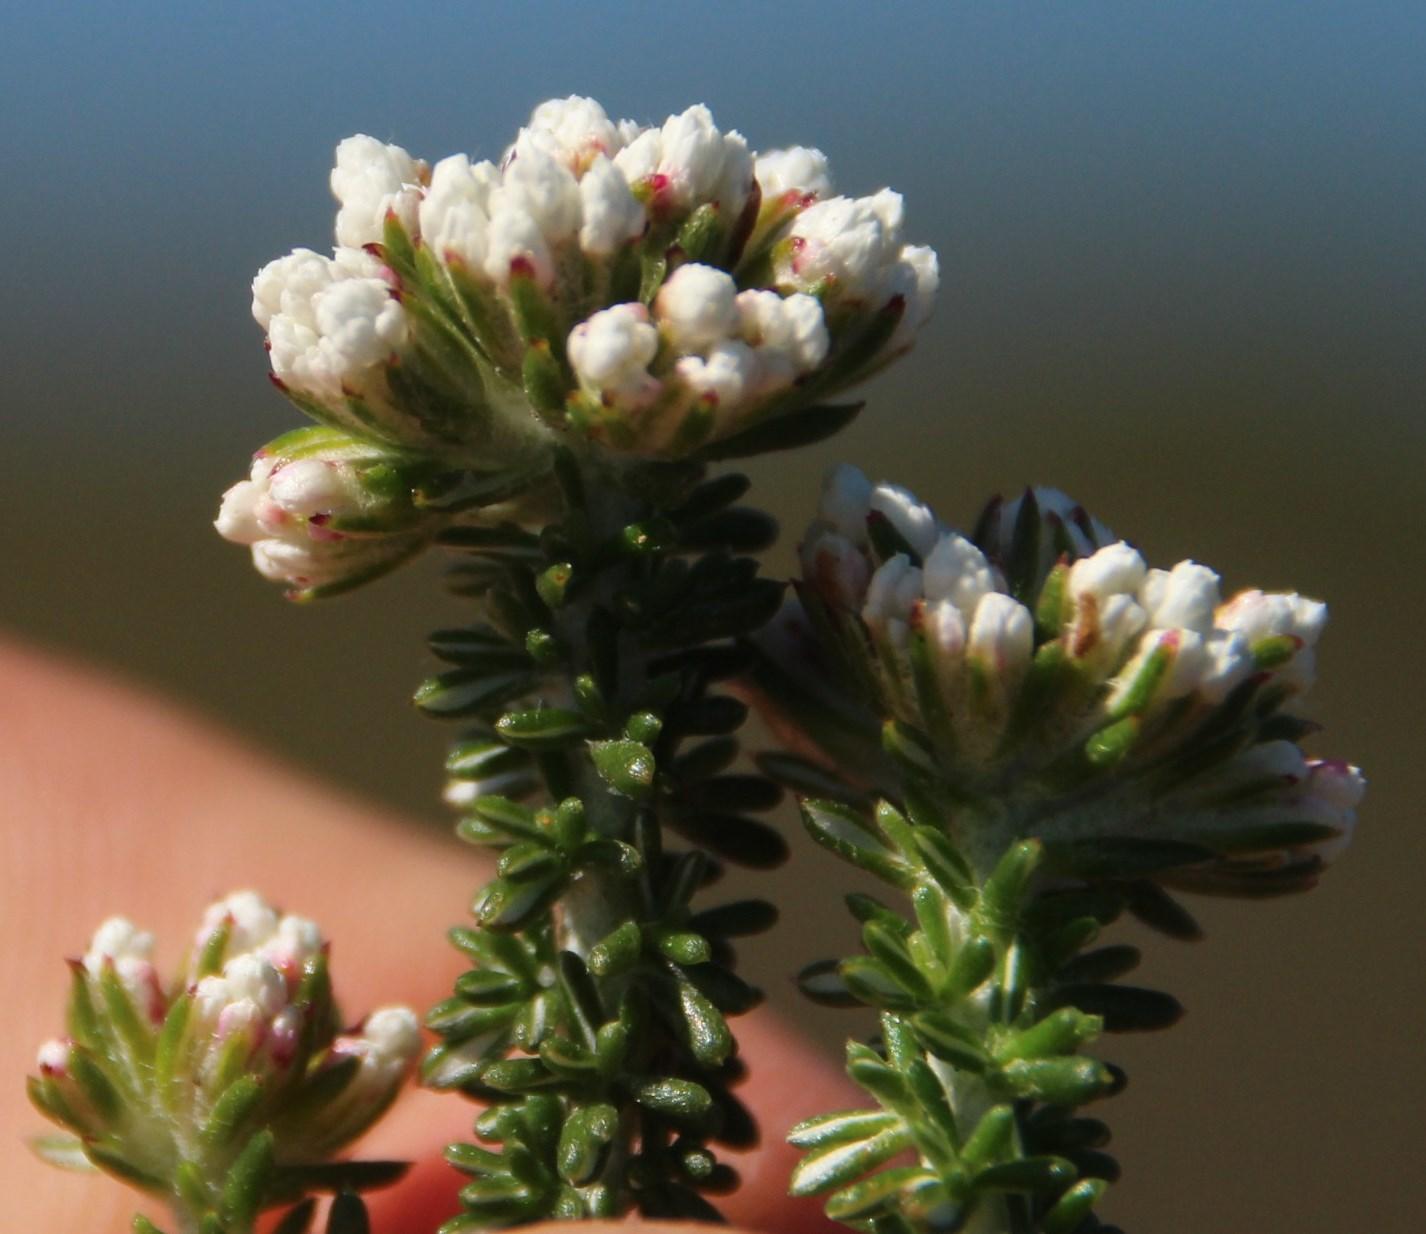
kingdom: Plantae
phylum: Tracheophyta
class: Magnoliopsida
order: Asterales
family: Asteraceae
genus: Metalasia
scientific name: Metalasia muricata
